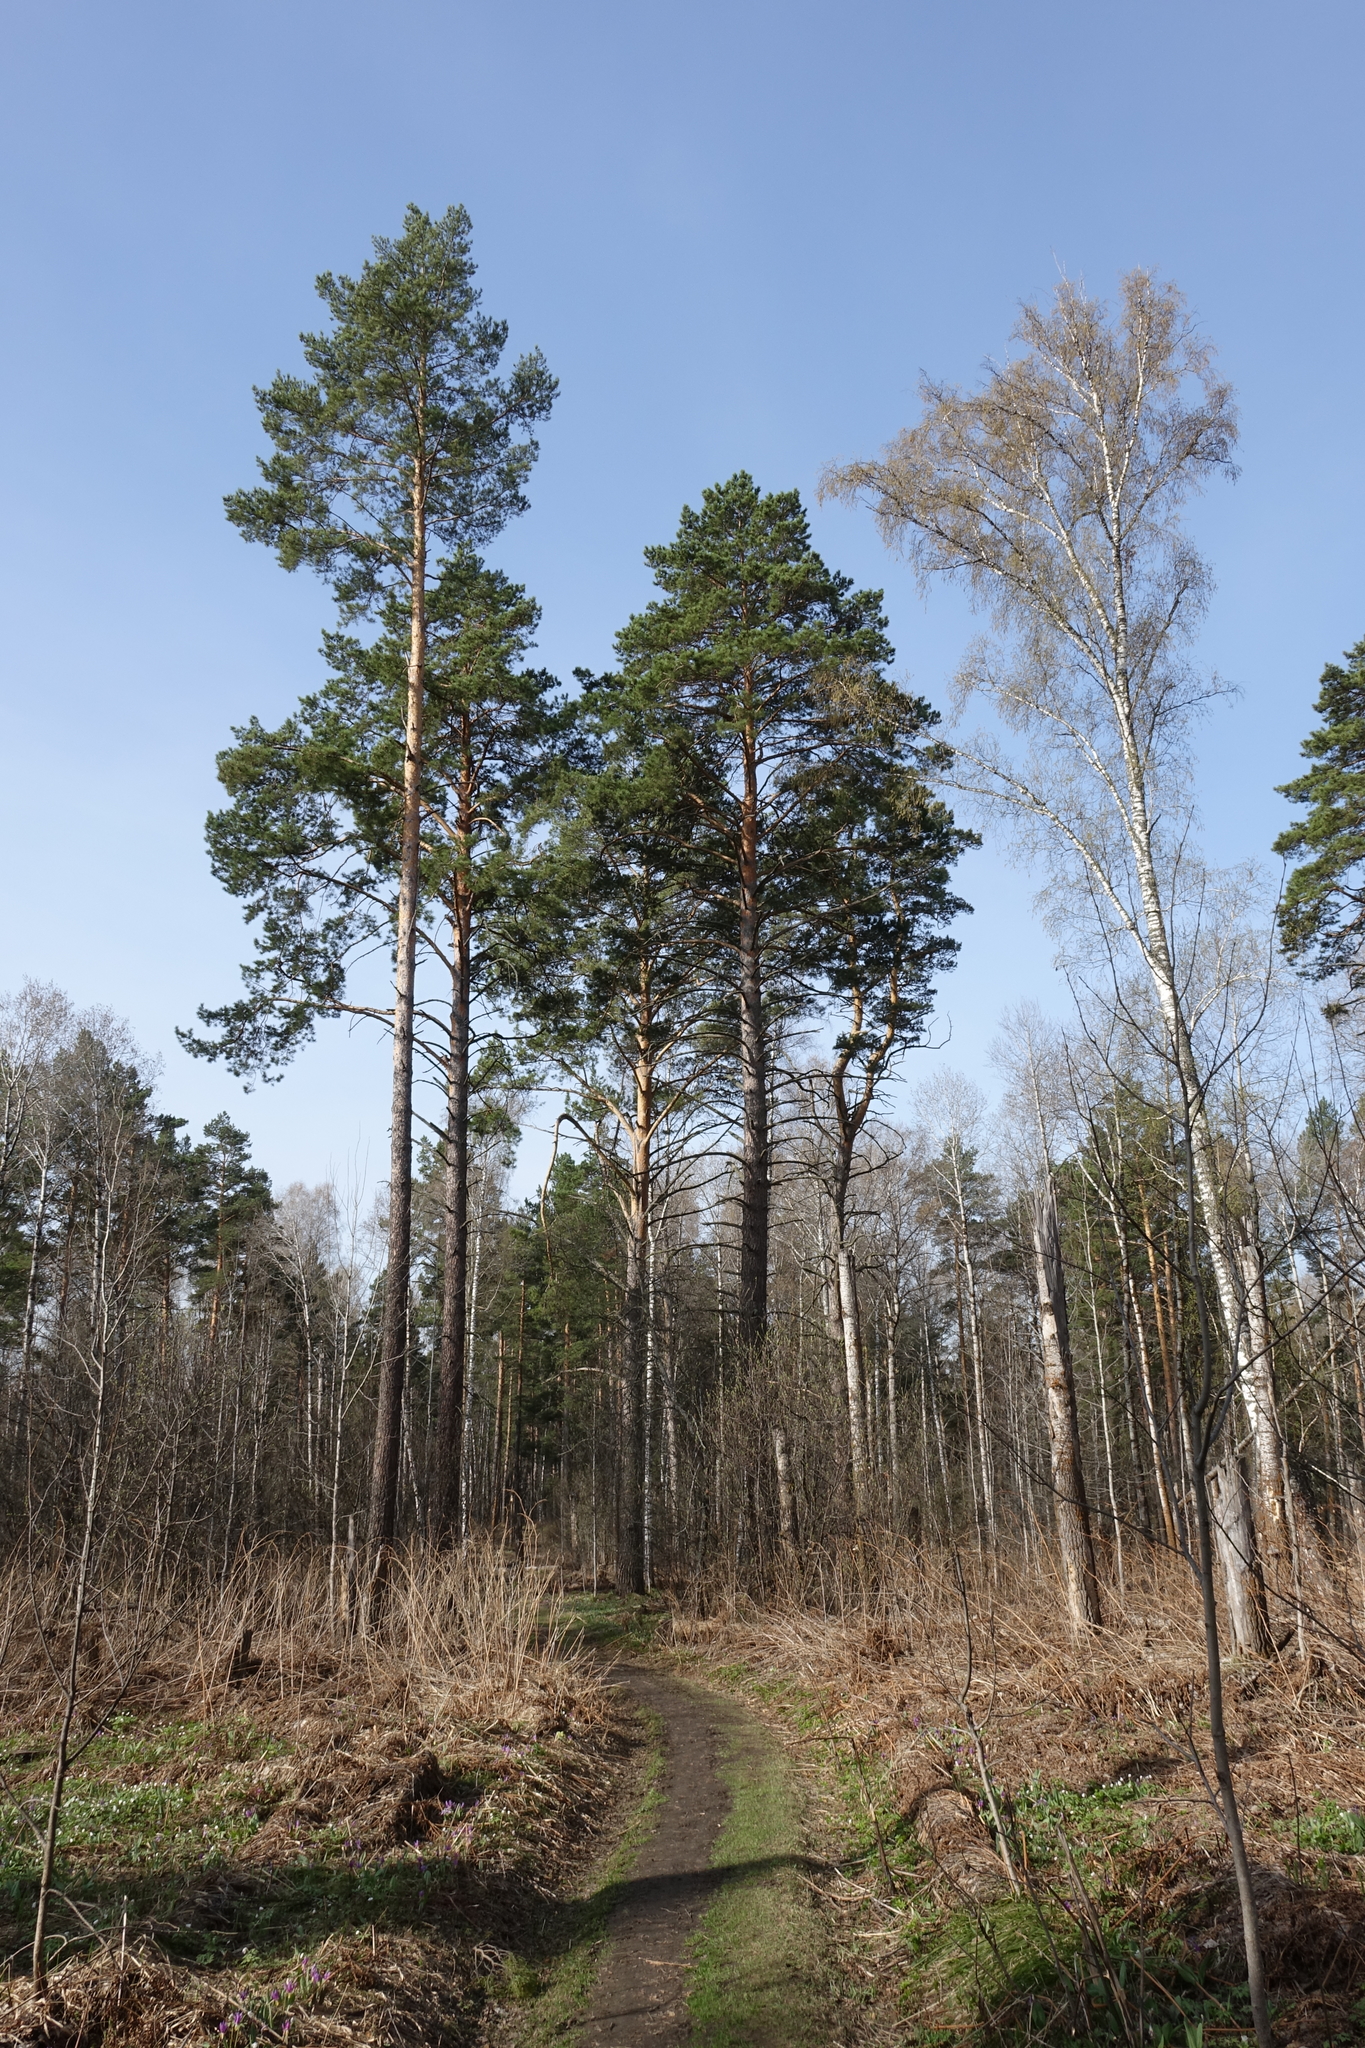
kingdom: Plantae
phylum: Tracheophyta
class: Pinopsida
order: Pinales
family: Pinaceae
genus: Pinus
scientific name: Pinus sylvestris
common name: Scots pine
